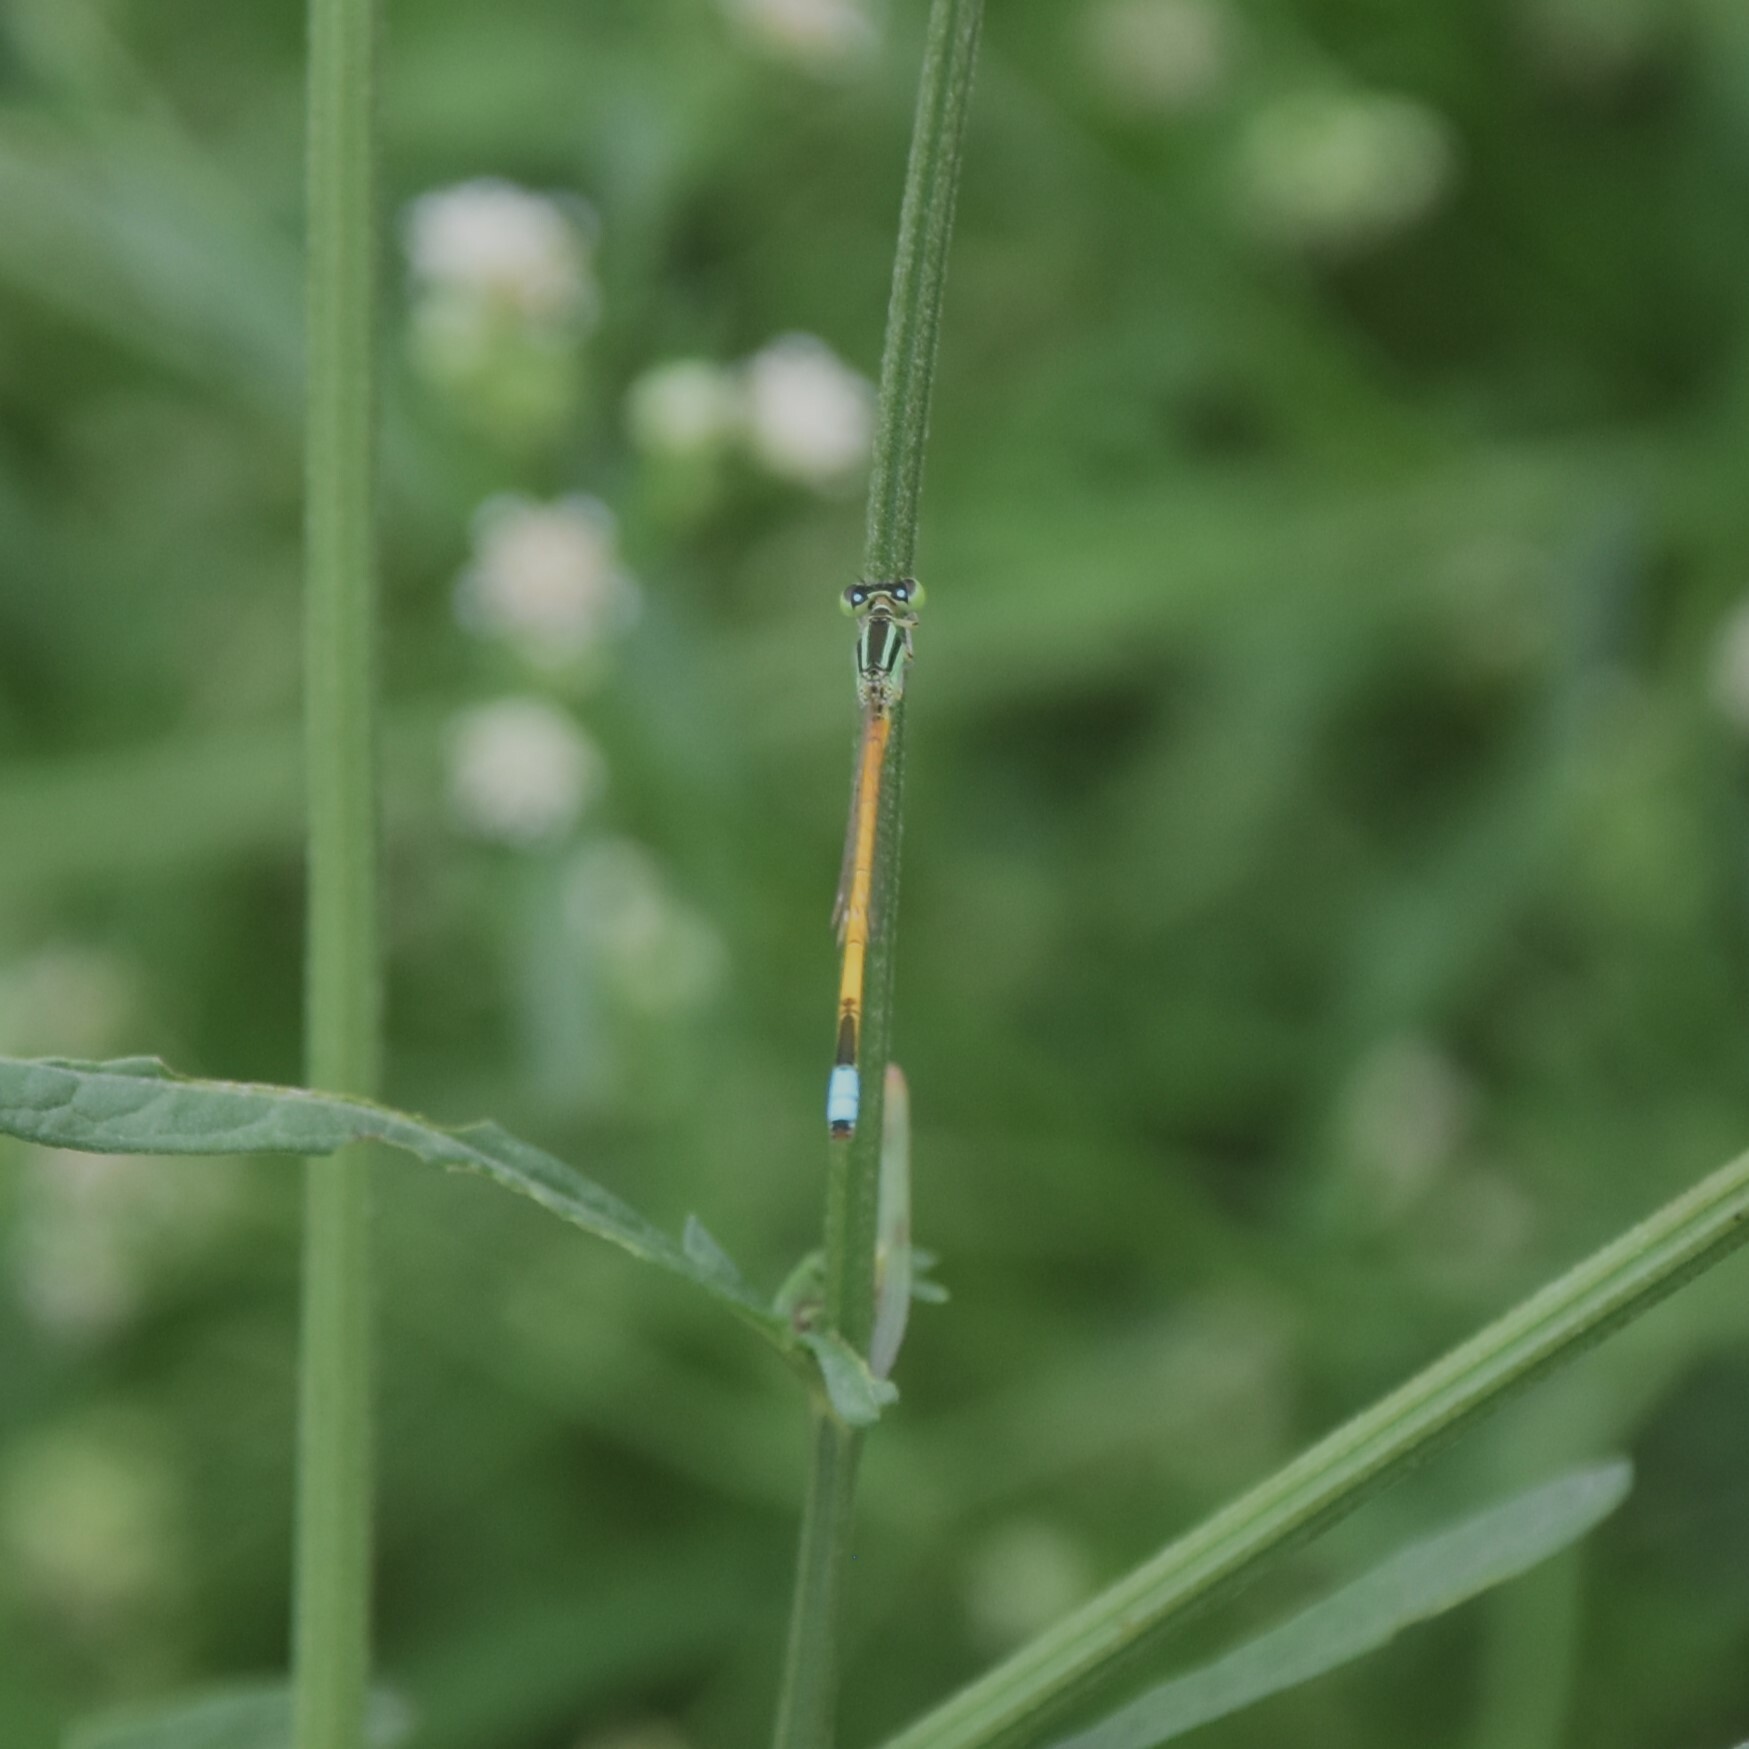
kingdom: Animalia
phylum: Arthropoda
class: Insecta
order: Odonata
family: Coenagrionidae
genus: Ischnura
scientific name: Ischnura rubilio
